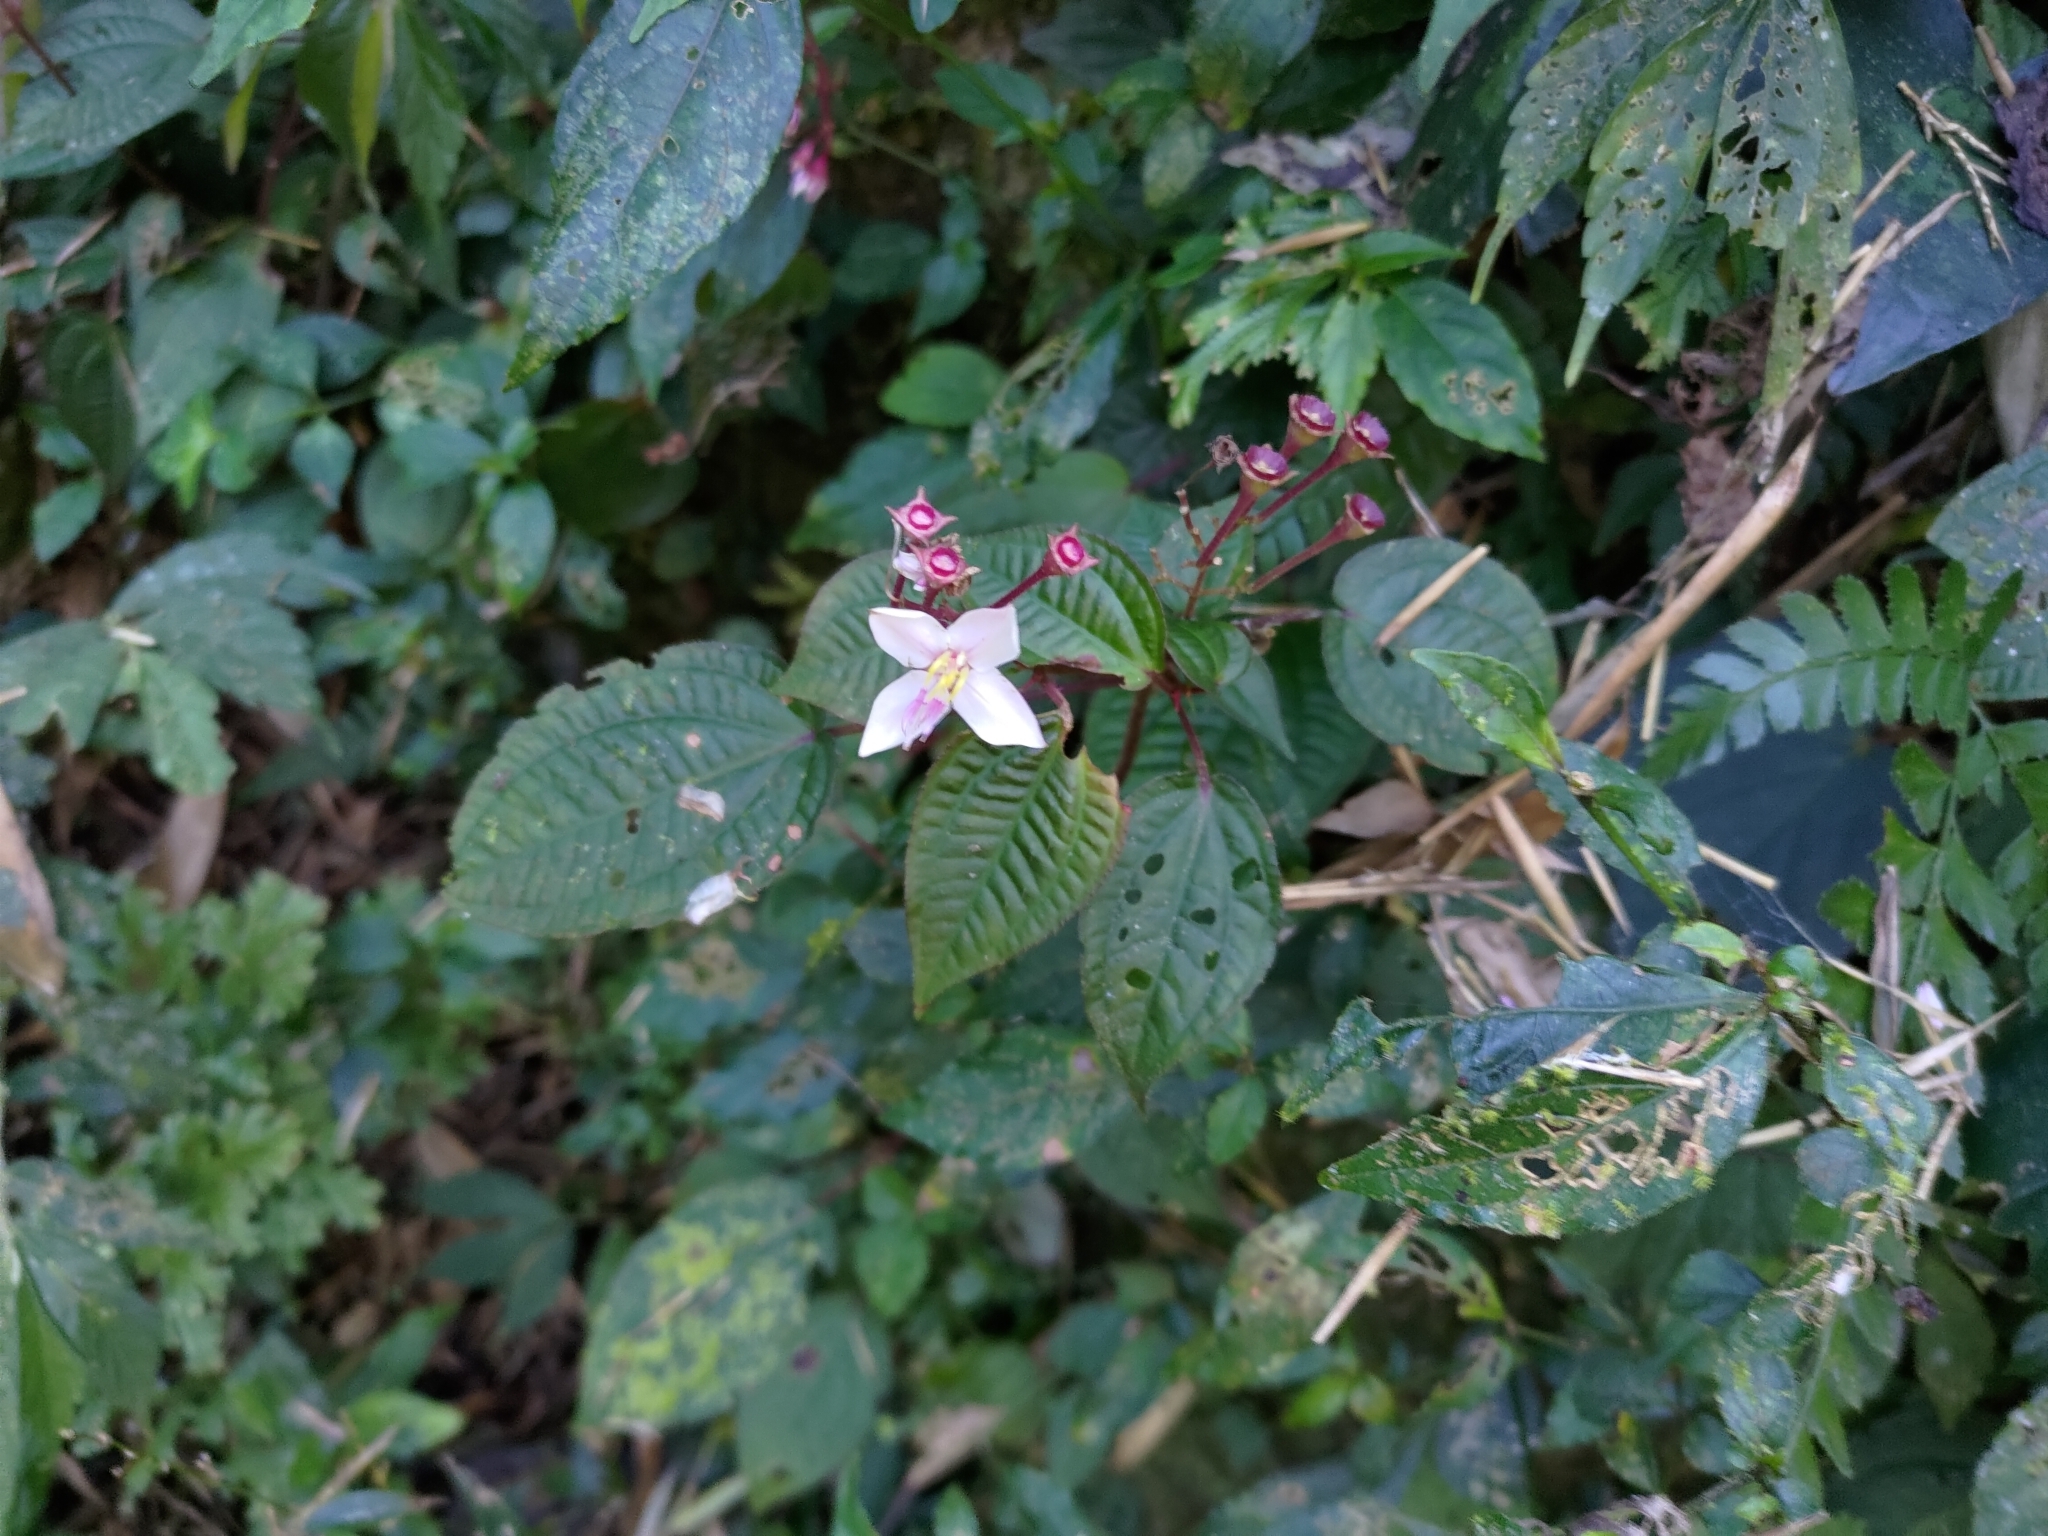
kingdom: Plantae
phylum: Tracheophyta
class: Magnoliopsida
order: Myrtales
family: Melastomataceae
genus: Bredia
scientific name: Bredia hirsuta
